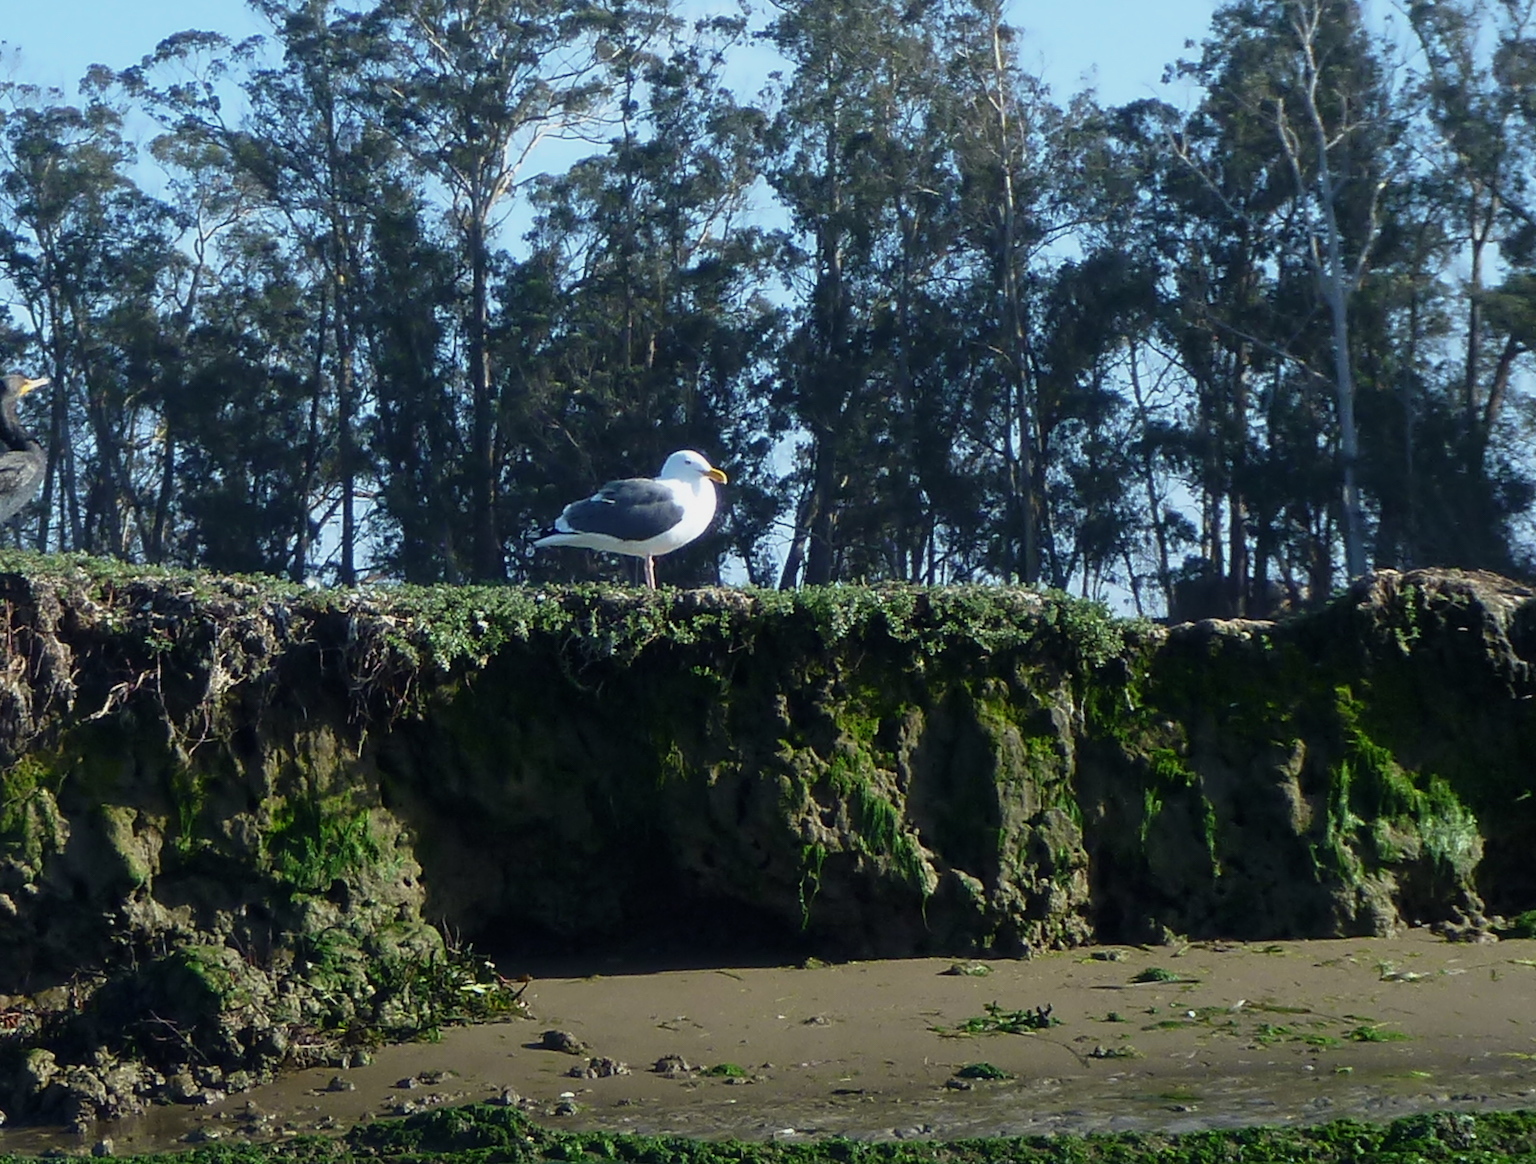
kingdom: Animalia
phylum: Chordata
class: Aves
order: Charadriiformes
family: Laridae
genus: Larus
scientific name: Larus occidentalis
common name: Western gull
